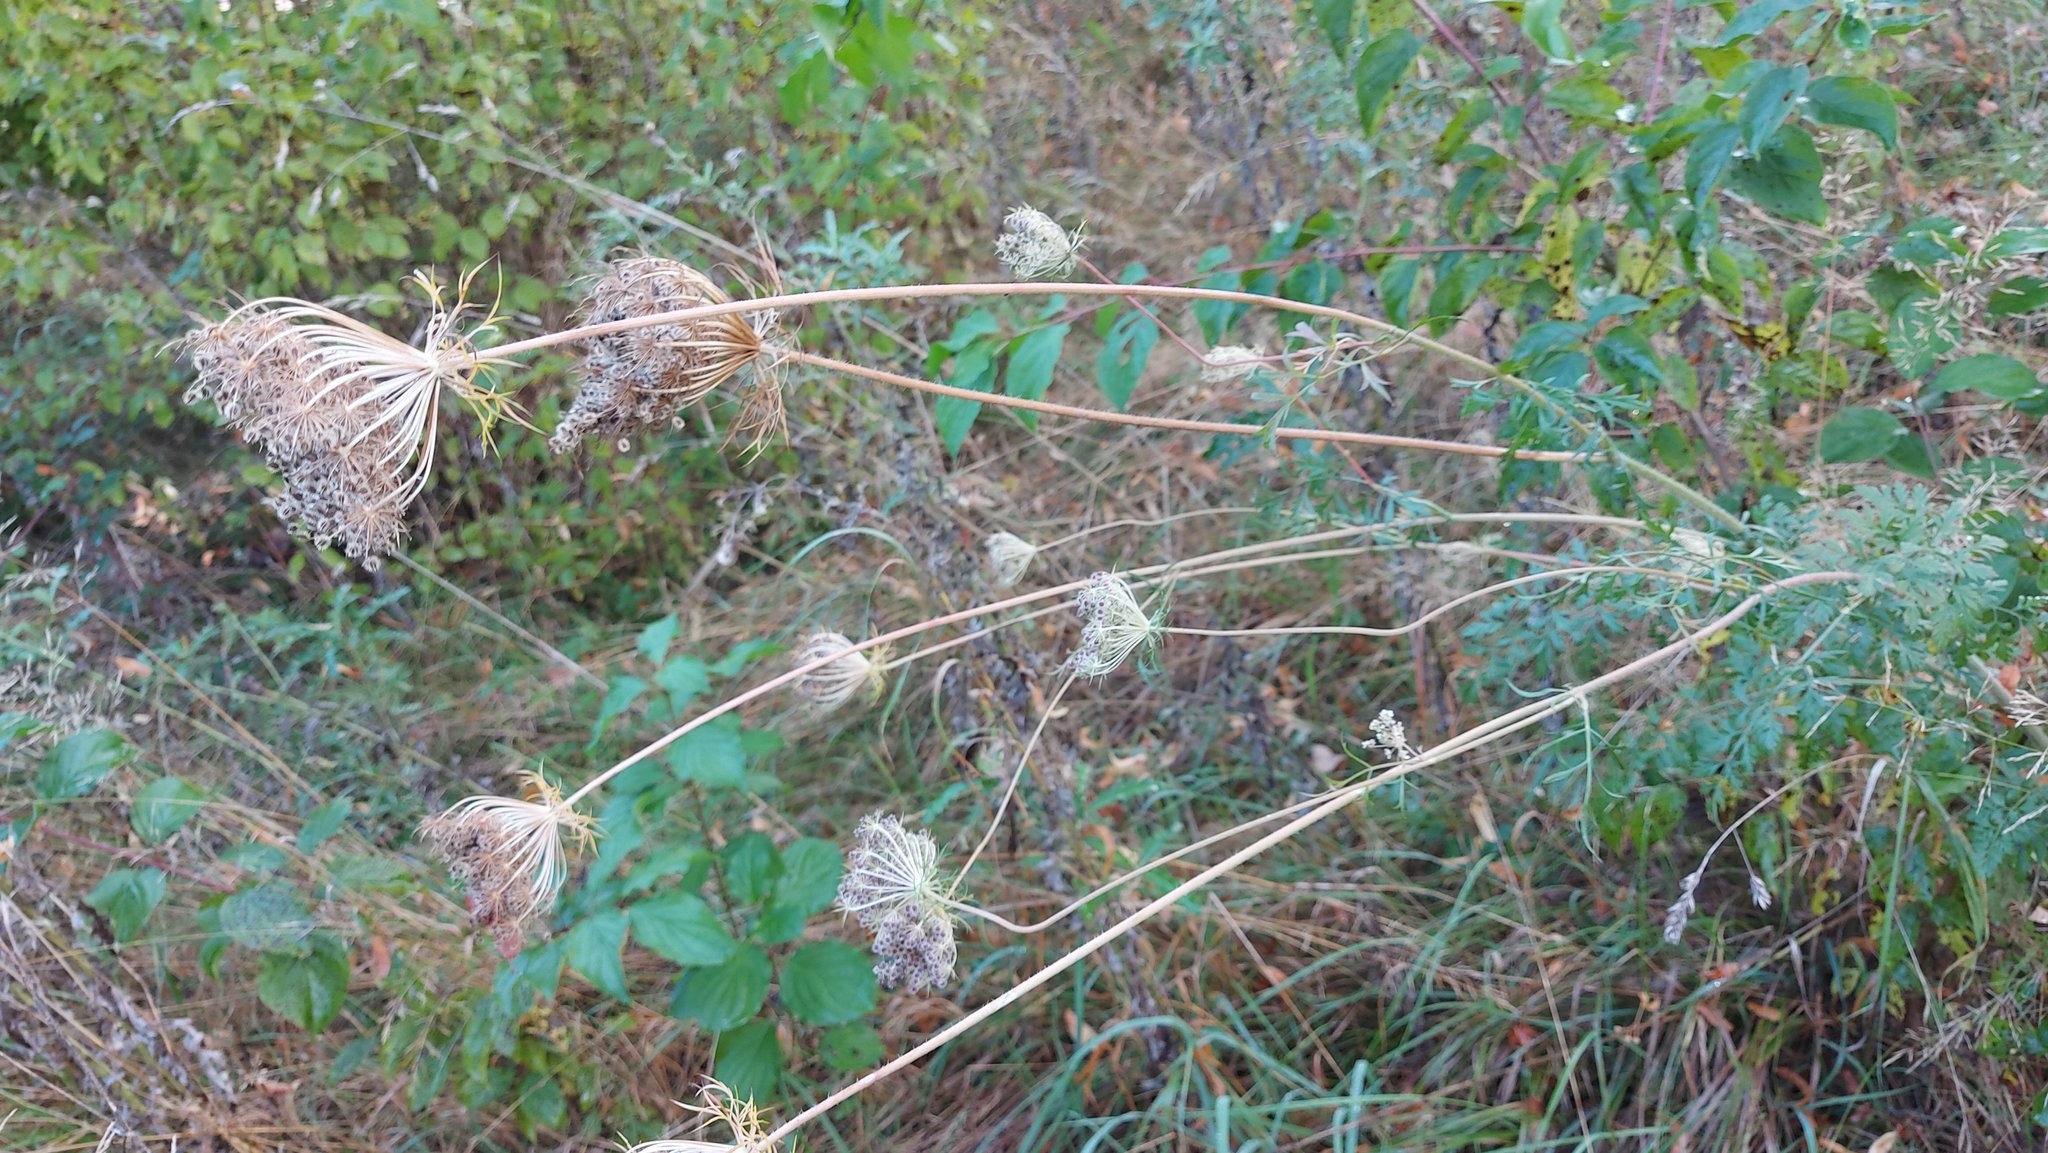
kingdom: Plantae
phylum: Tracheophyta
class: Magnoliopsida
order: Apiales
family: Apiaceae
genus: Daucus
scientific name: Daucus carota
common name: Wild carrot
